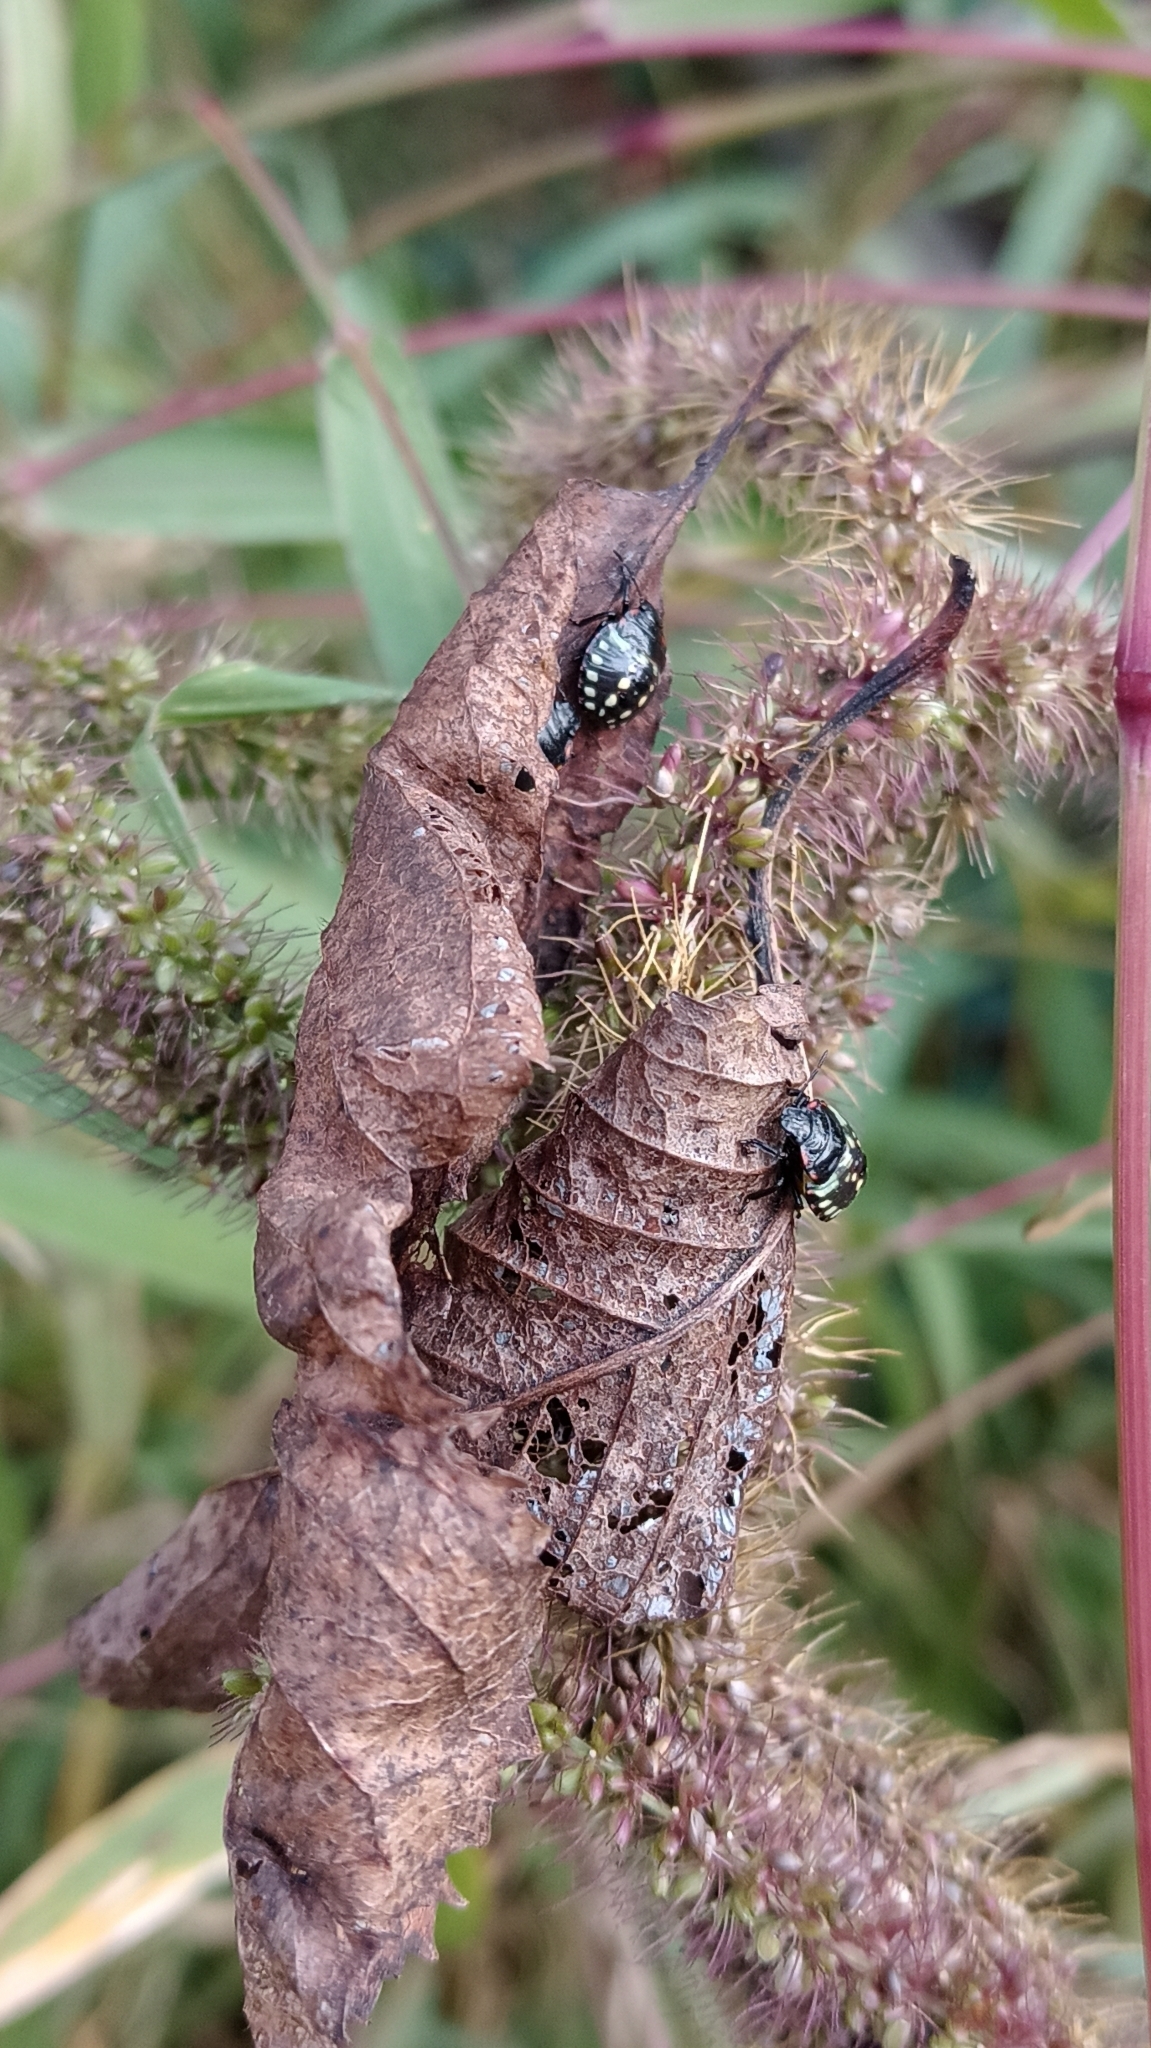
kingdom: Animalia
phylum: Arthropoda
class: Insecta
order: Hemiptera
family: Pentatomidae
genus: Nezara
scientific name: Nezara viridula
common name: Southern green stink bug
